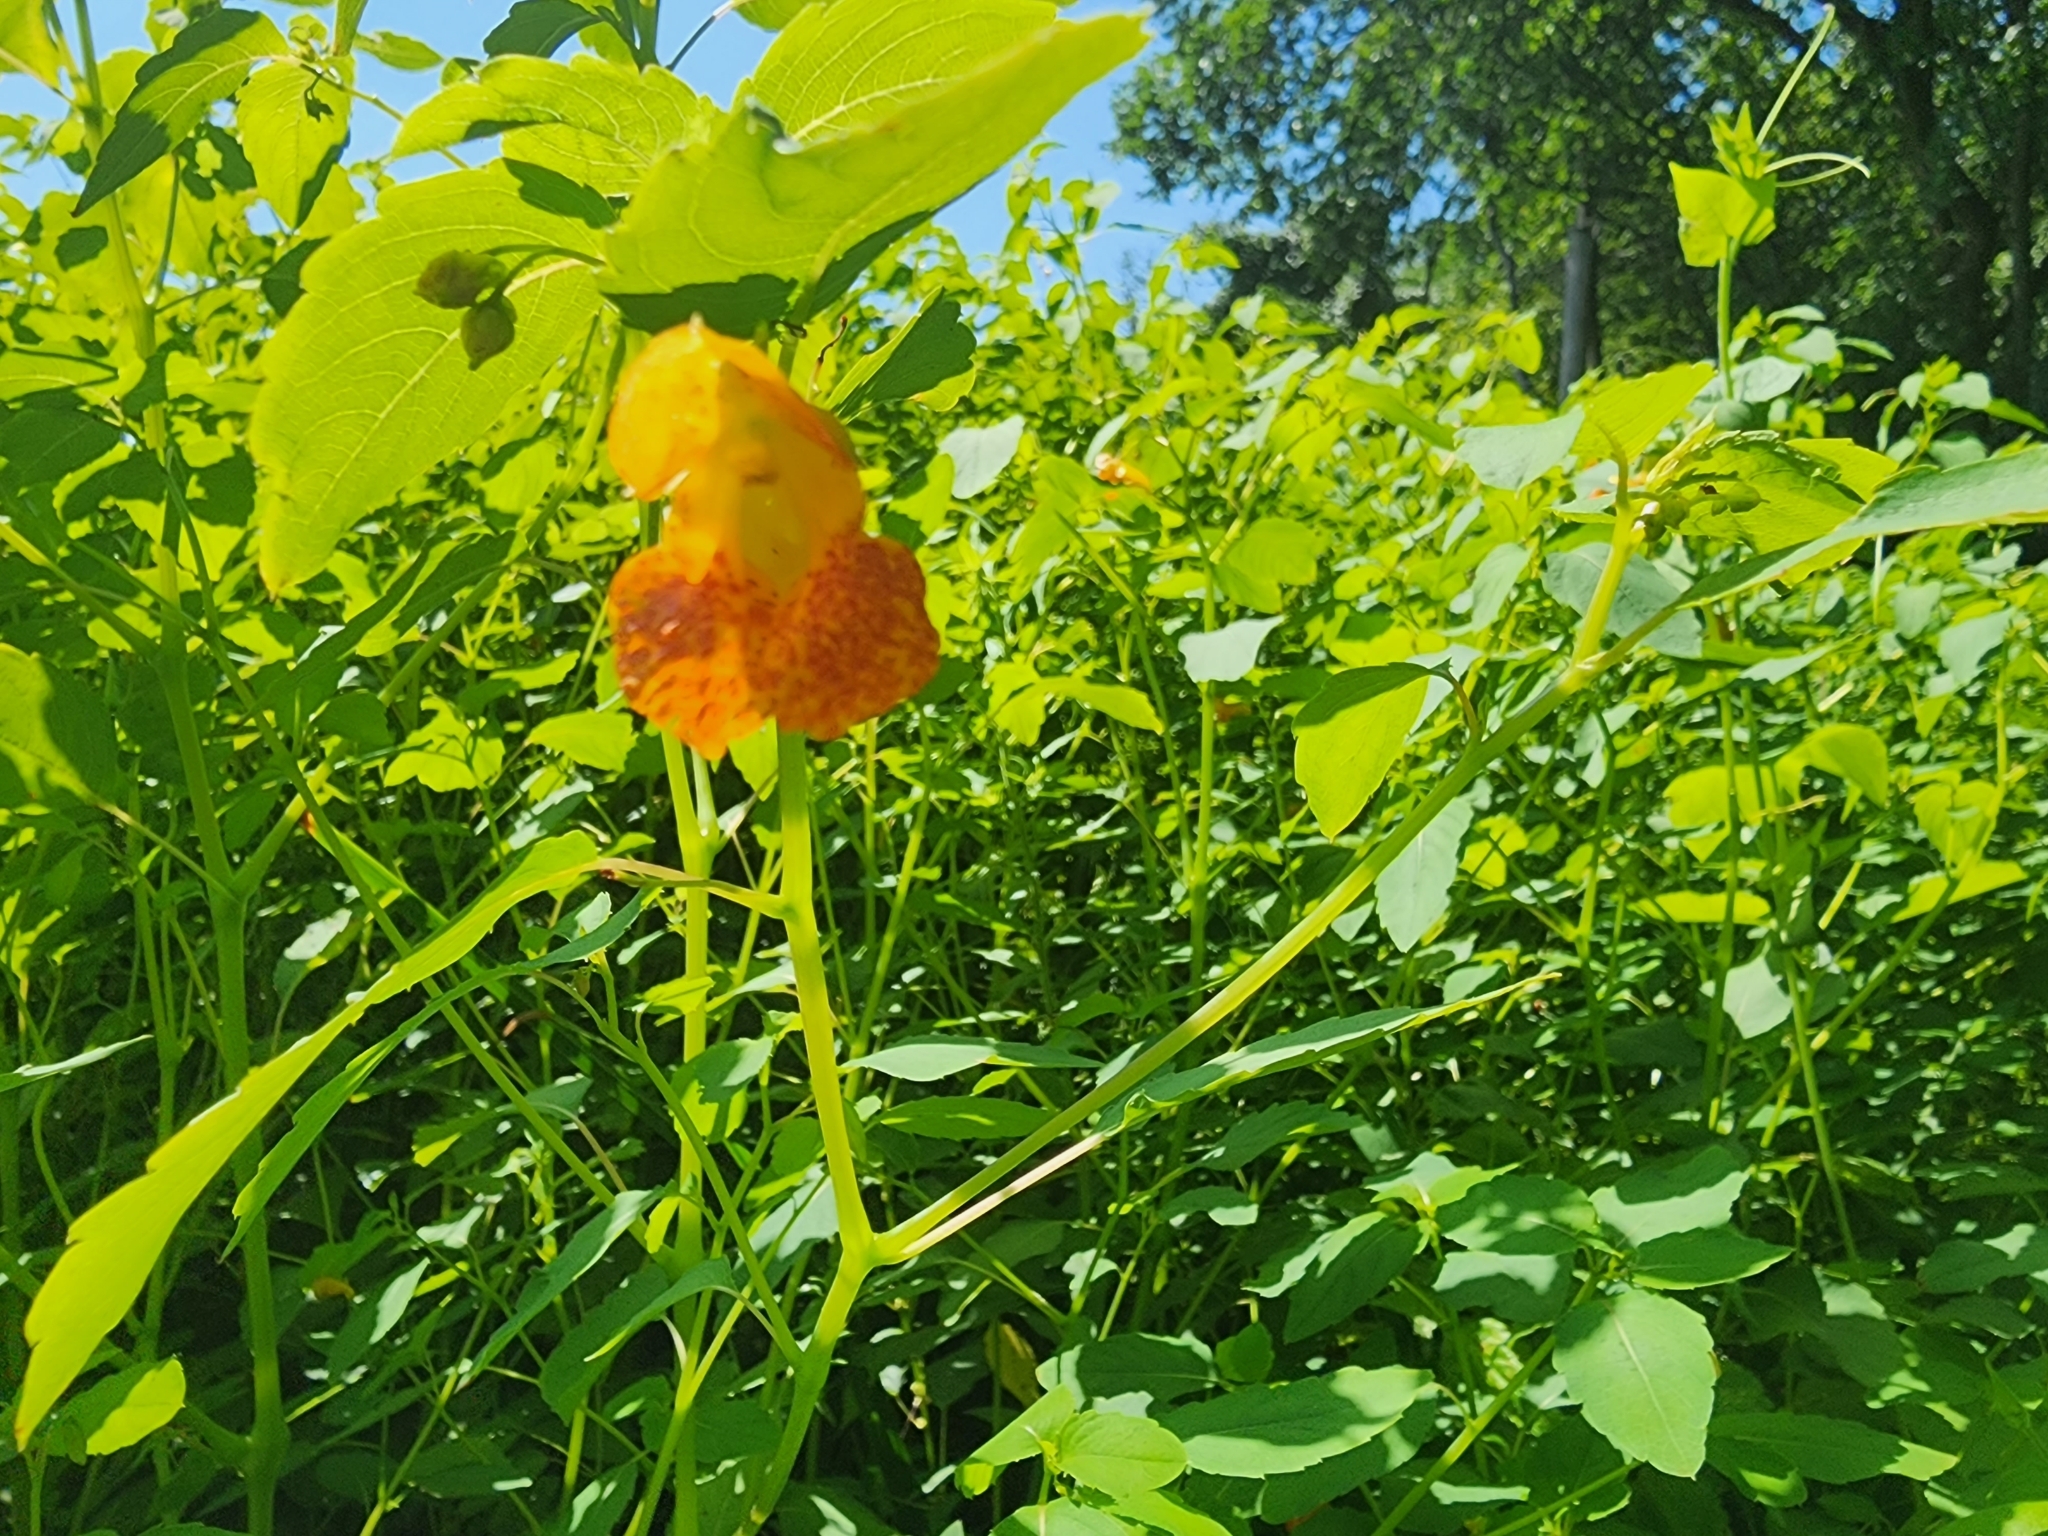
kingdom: Plantae
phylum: Tracheophyta
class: Magnoliopsida
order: Ericales
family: Balsaminaceae
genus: Impatiens
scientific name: Impatiens capensis
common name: Orange balsam
